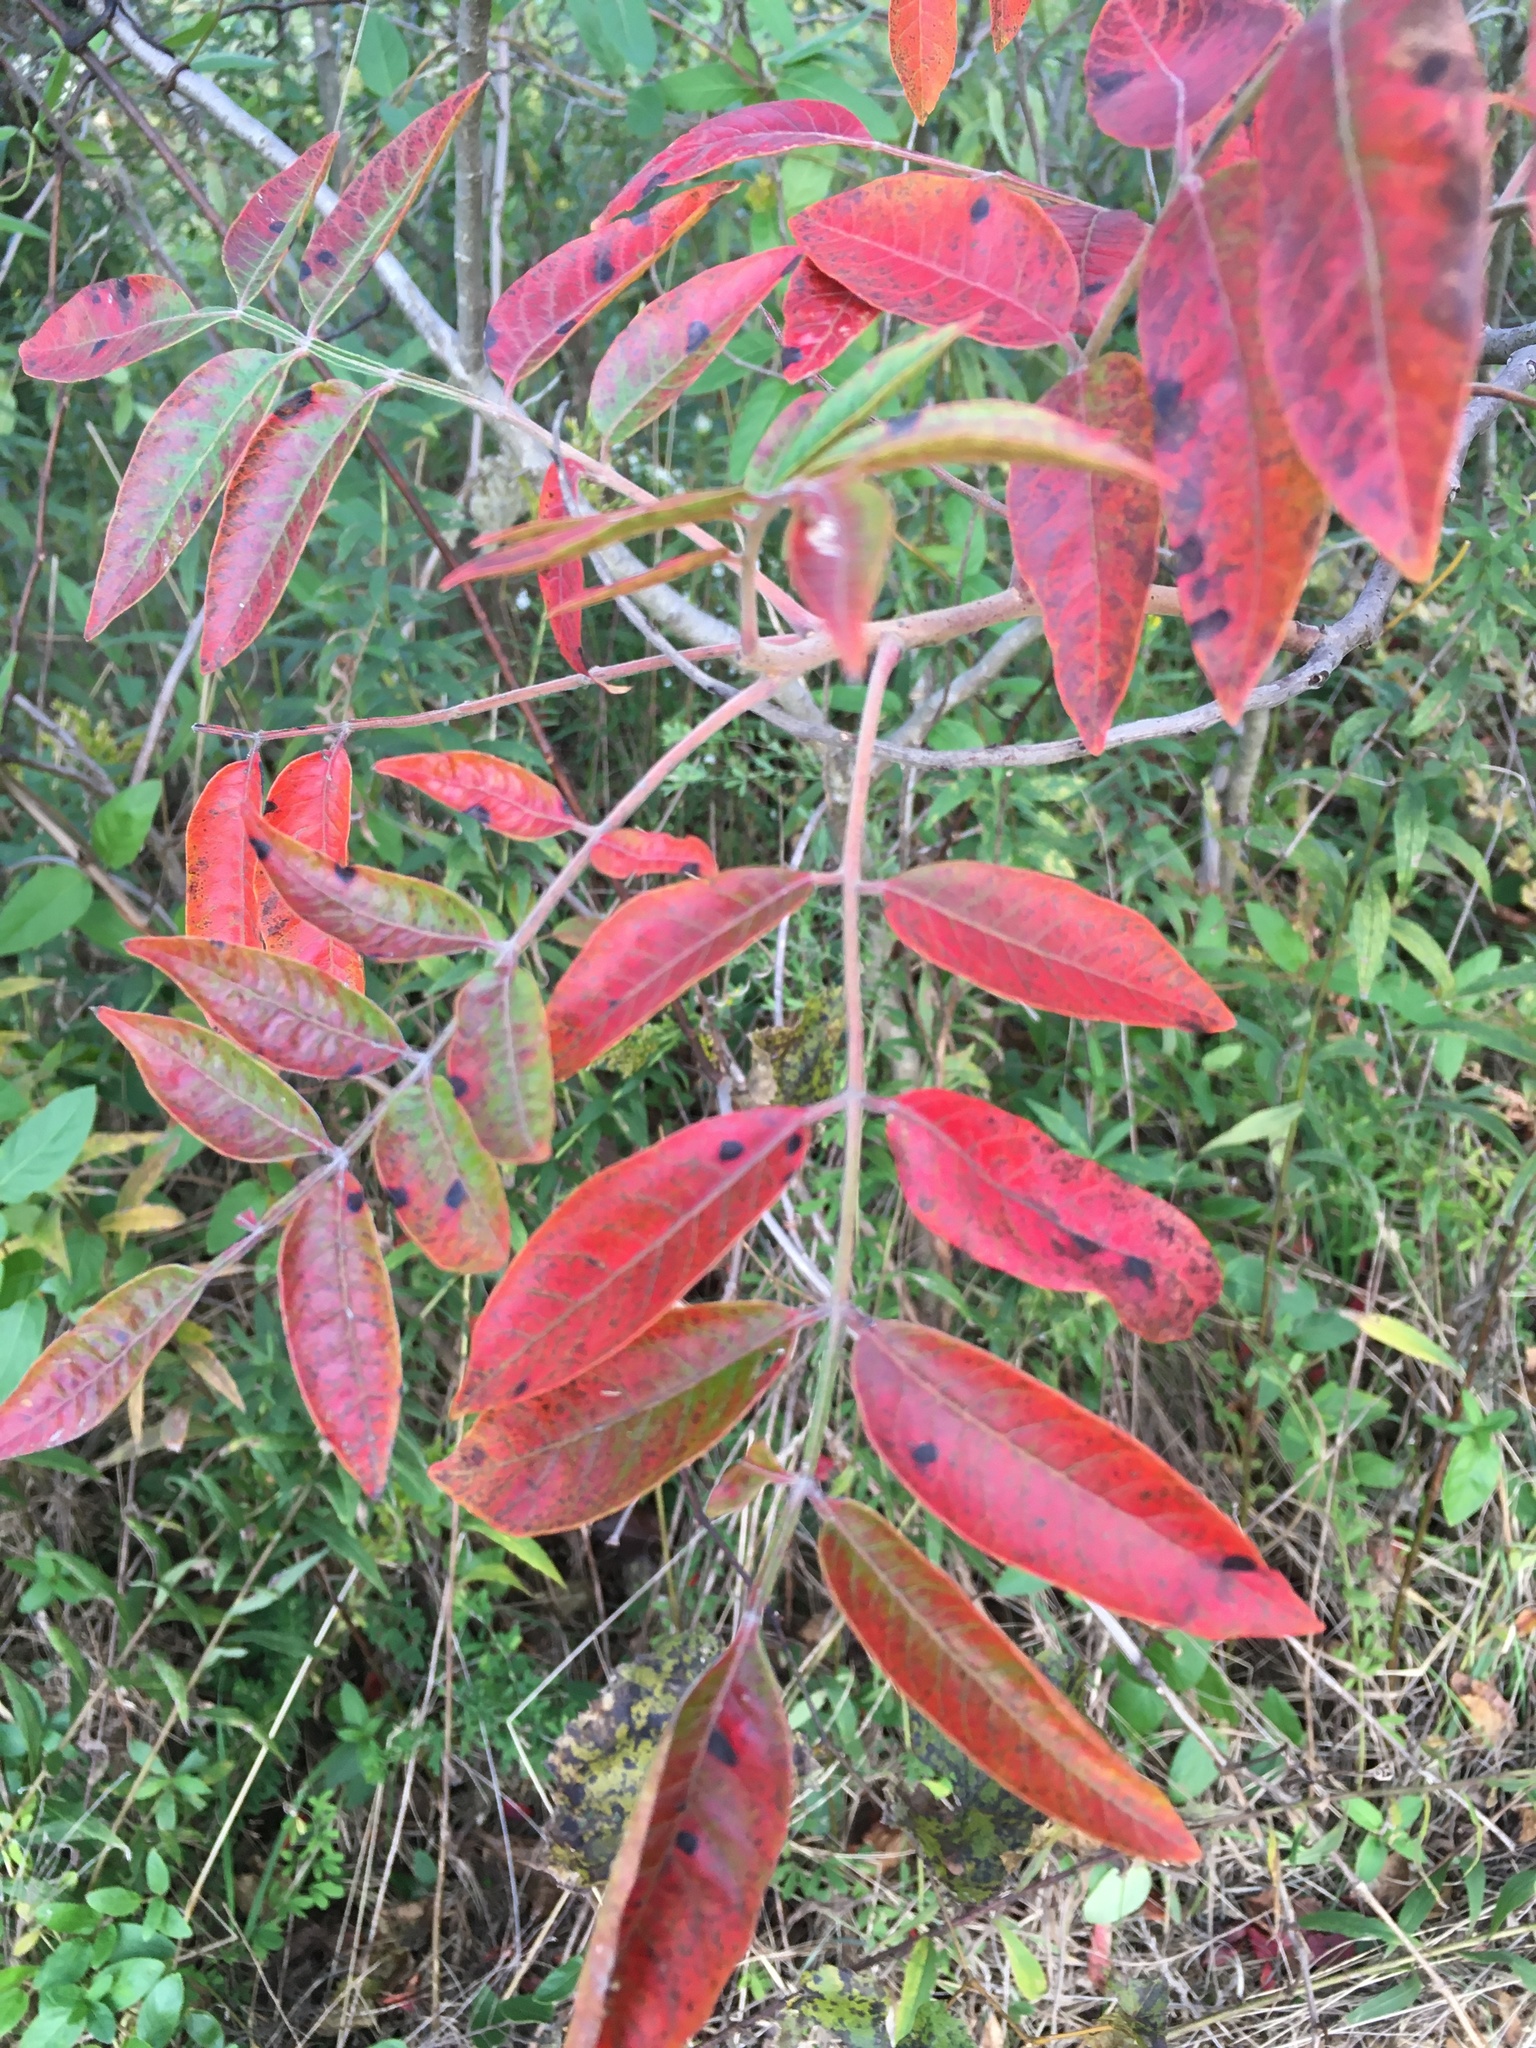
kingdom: Plantae
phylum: Tracheophyta
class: Magnoliopsida
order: Sapindales
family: Anacardiaceae
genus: Rhus
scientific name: Rhus copallina
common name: Shining sumac
